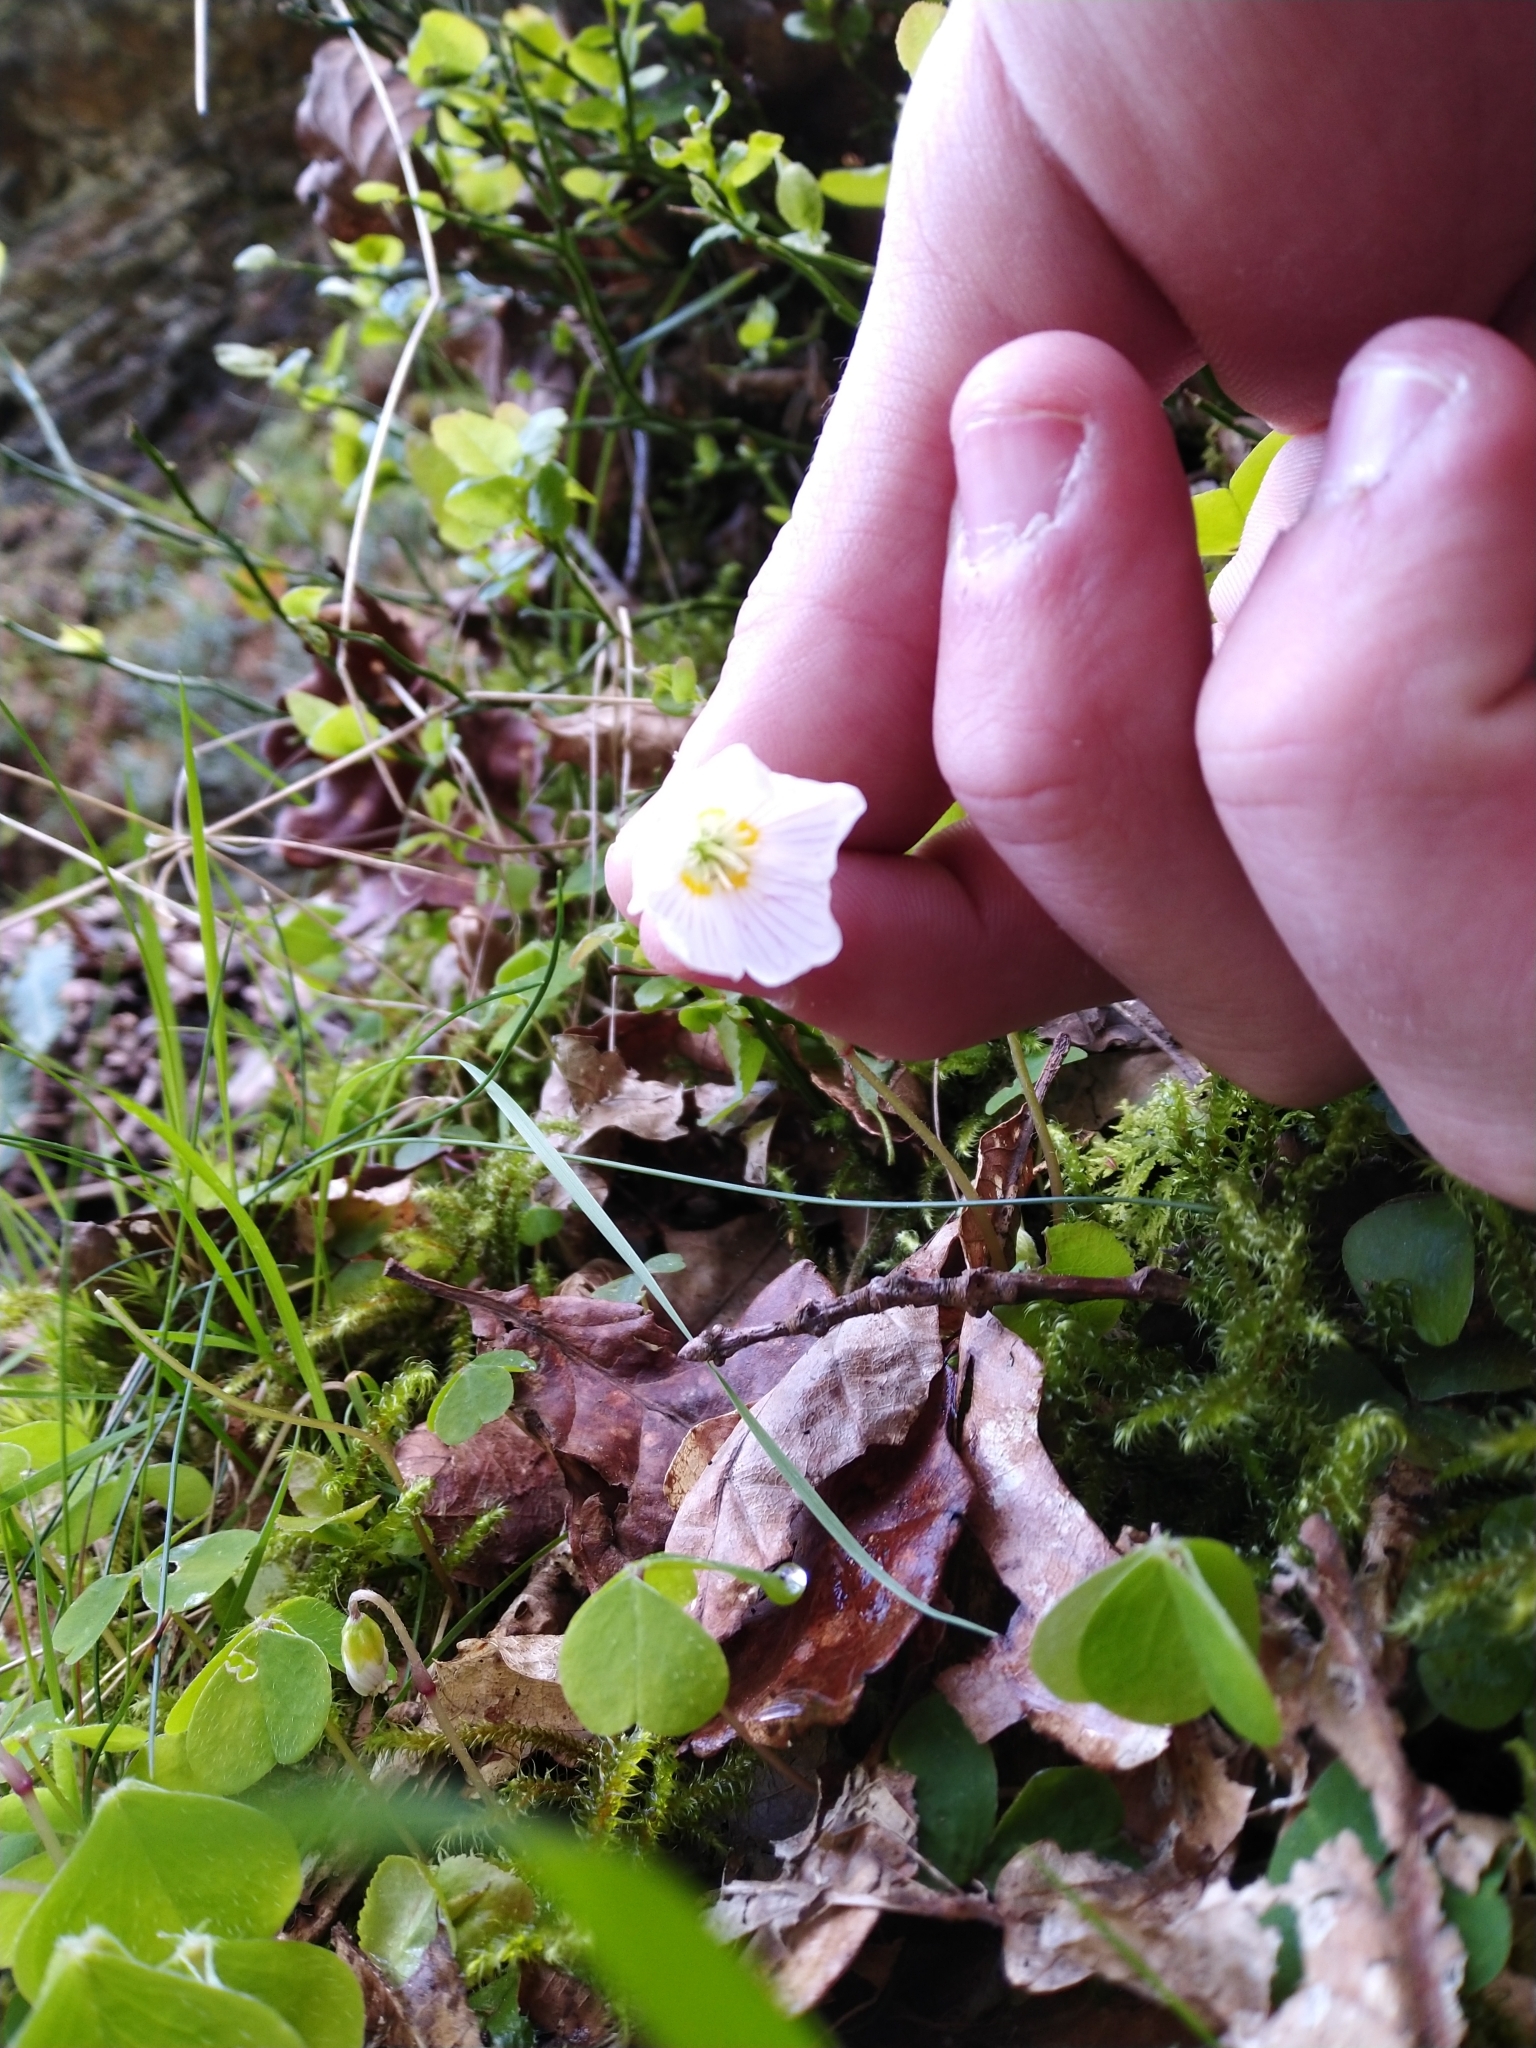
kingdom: Plantae
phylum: Tracheophyta
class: Magnoliopsida
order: Oxalidales
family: Oxalidaceae
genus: Oxalis
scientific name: Oxalis acetosella
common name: Wood-sorrel
